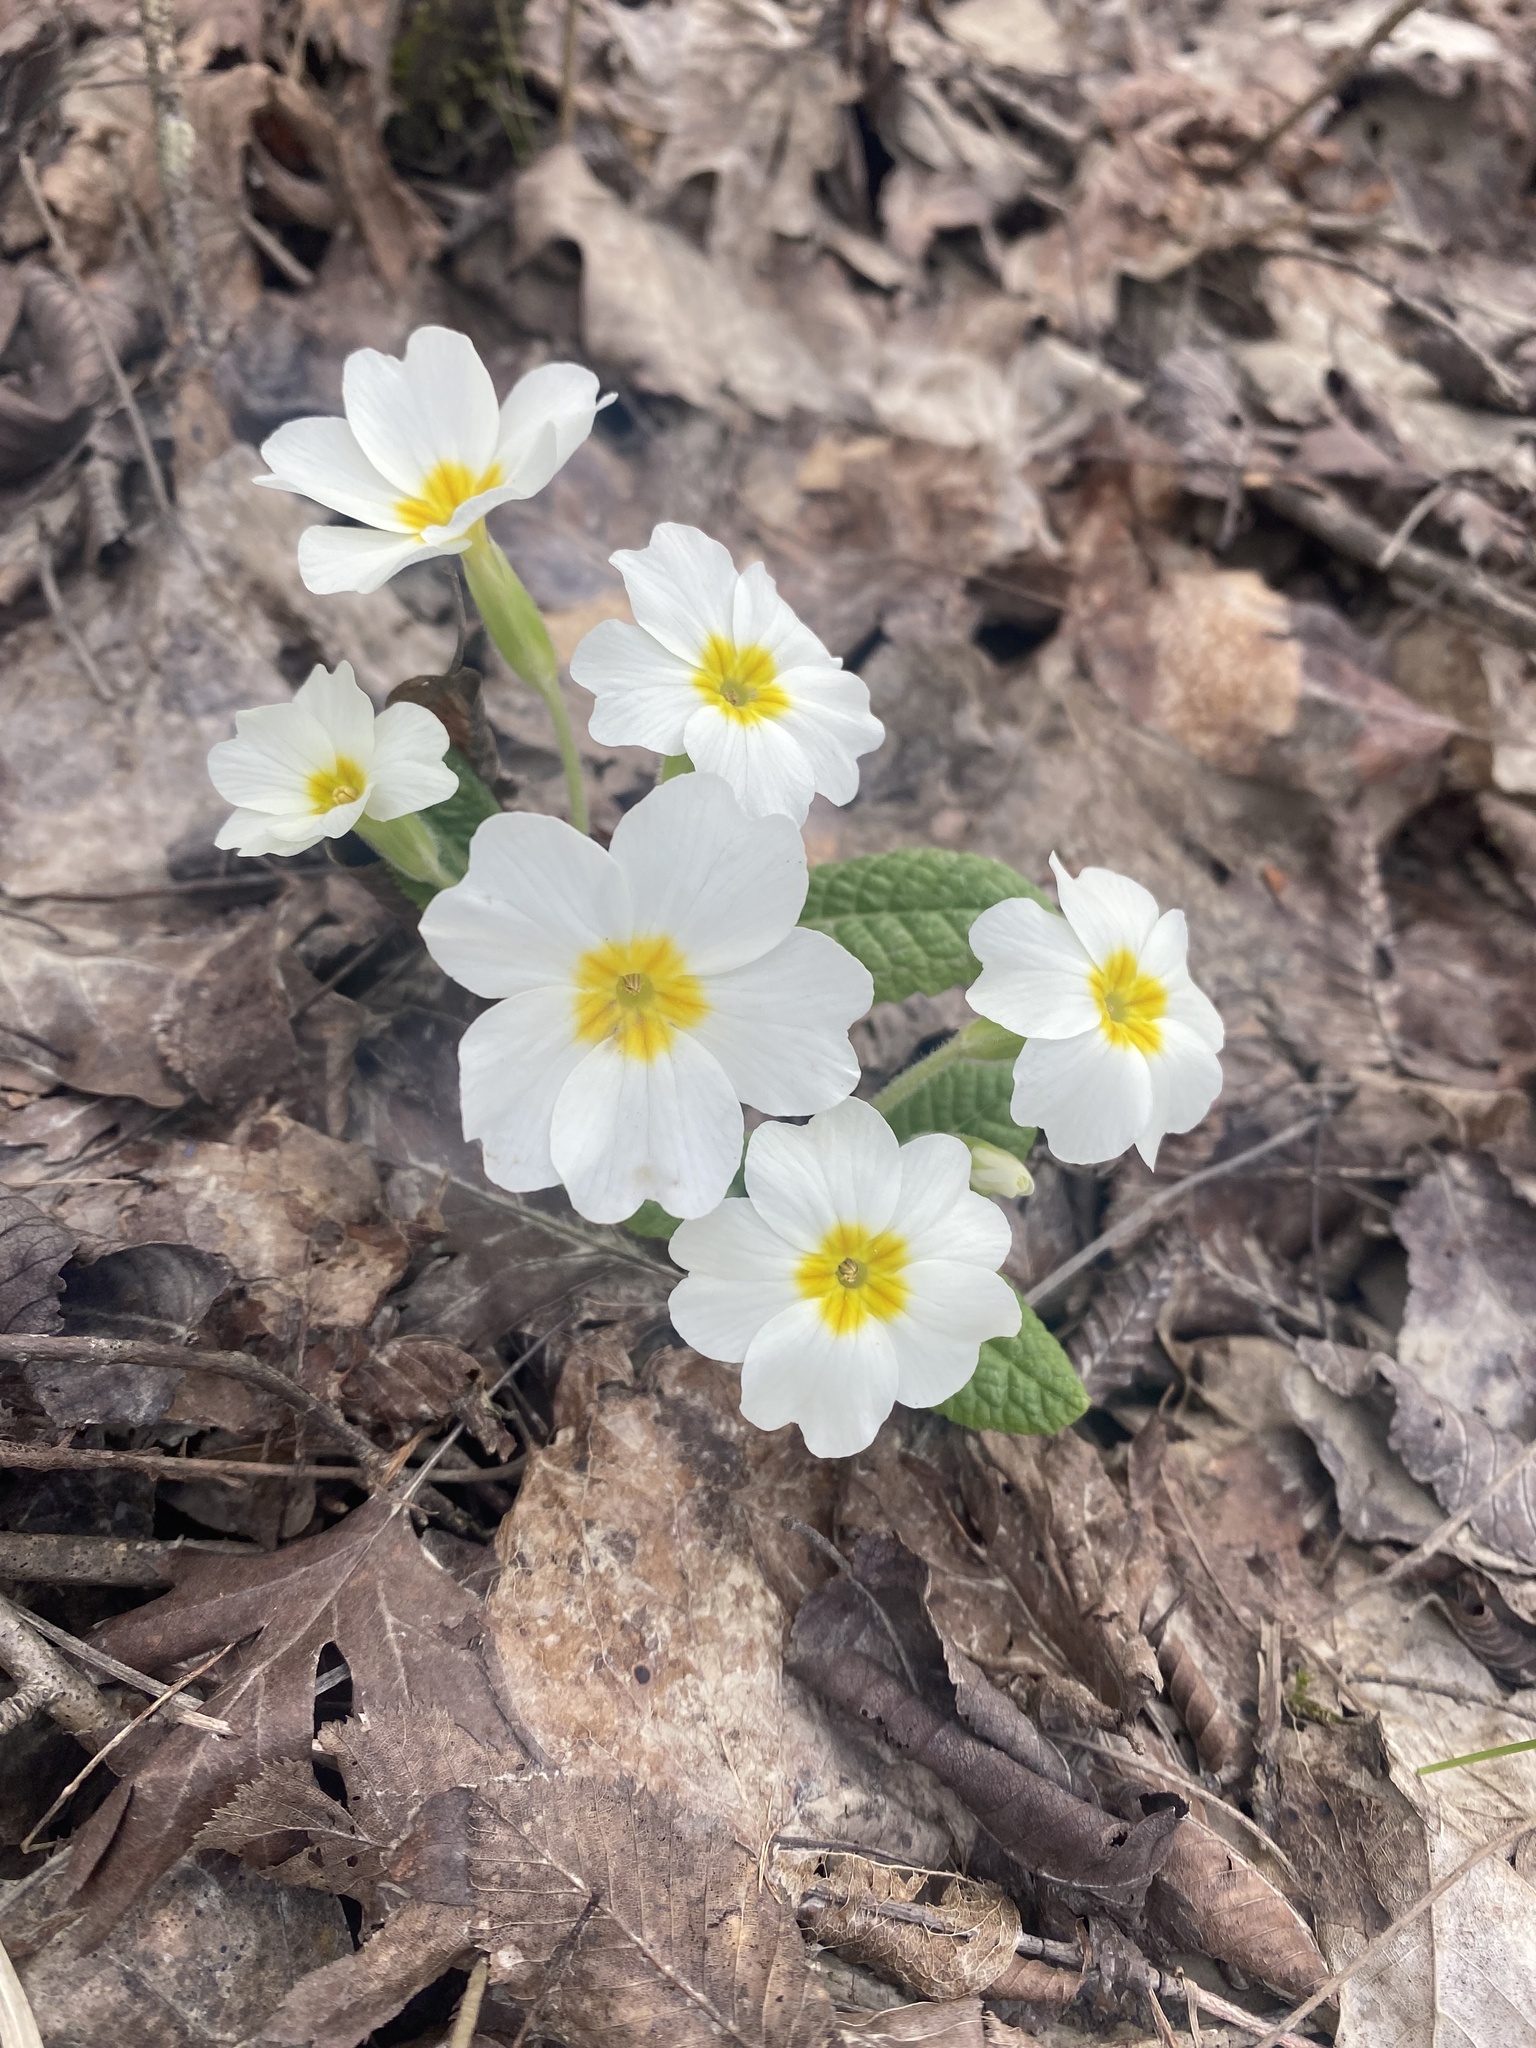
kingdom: Plantae
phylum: Tracheophyta
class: Magnoliopsida
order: Ericales
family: Primulaceae
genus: Primula
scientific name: Primula vulgaris
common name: Primrose
